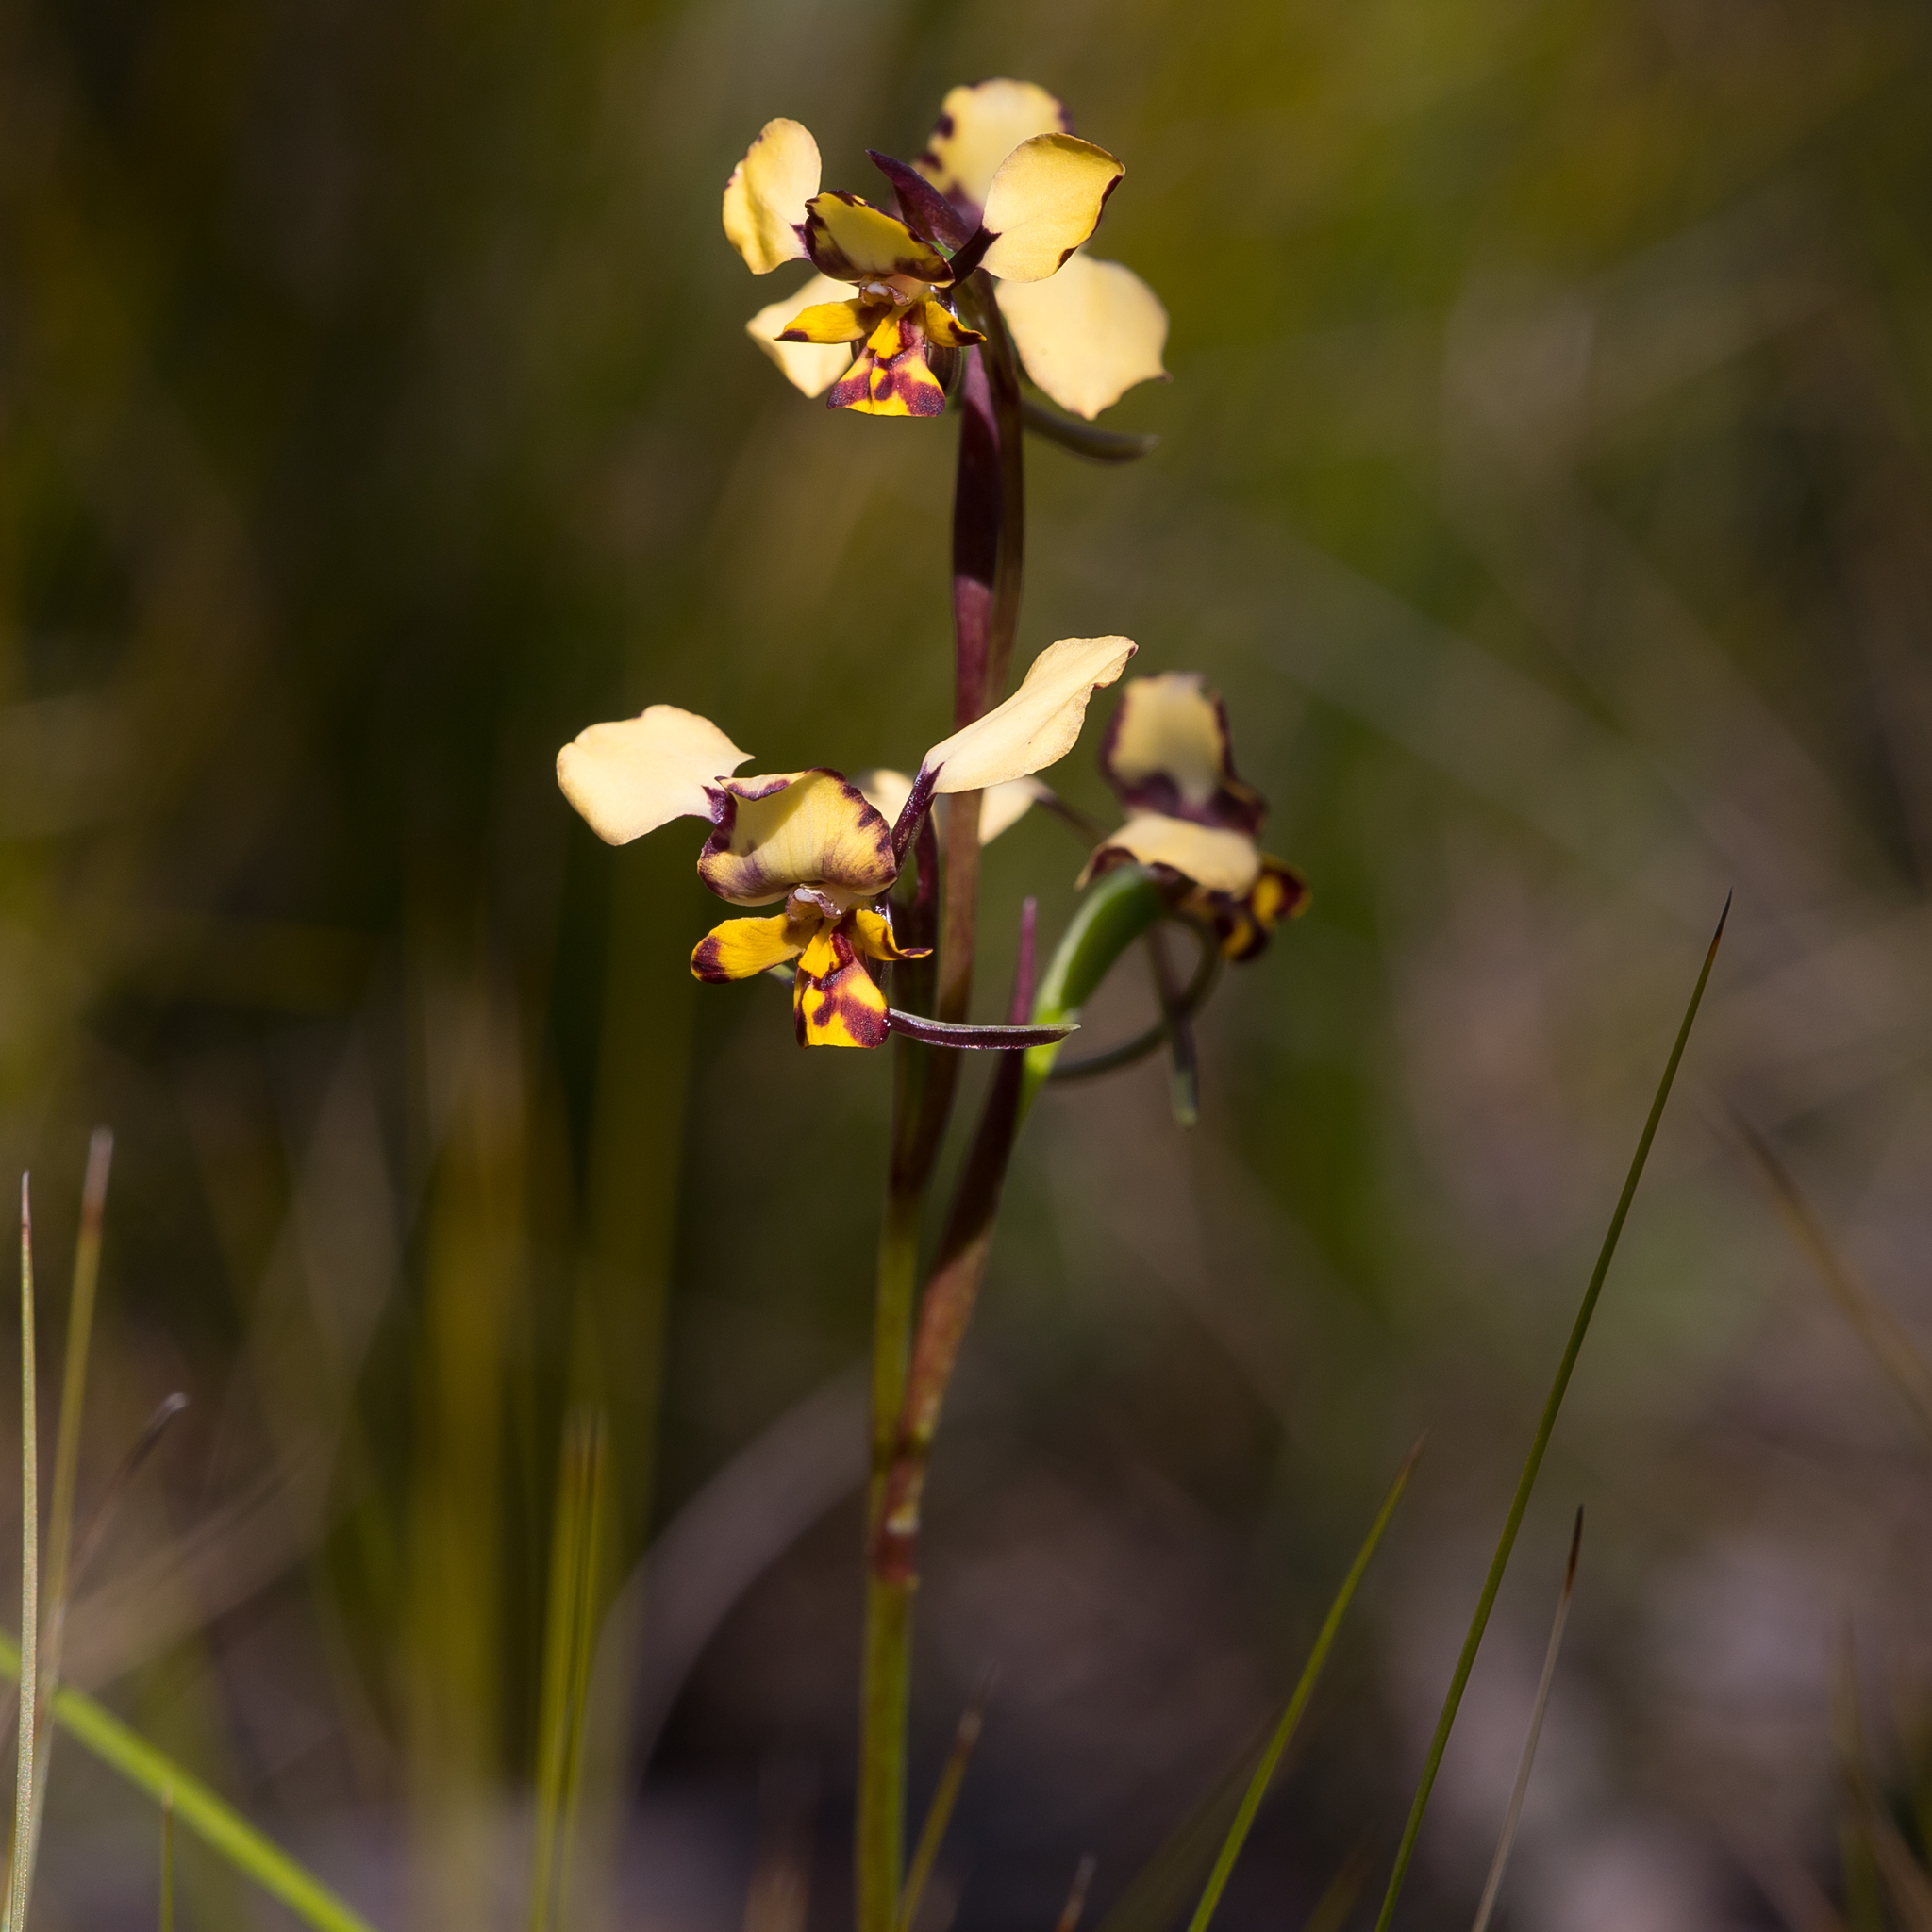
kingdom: Plantae
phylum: Tracheophyta
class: Liliopsida
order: Asparagales
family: Orchidaceae
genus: Diuris
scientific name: Diuris pardina
